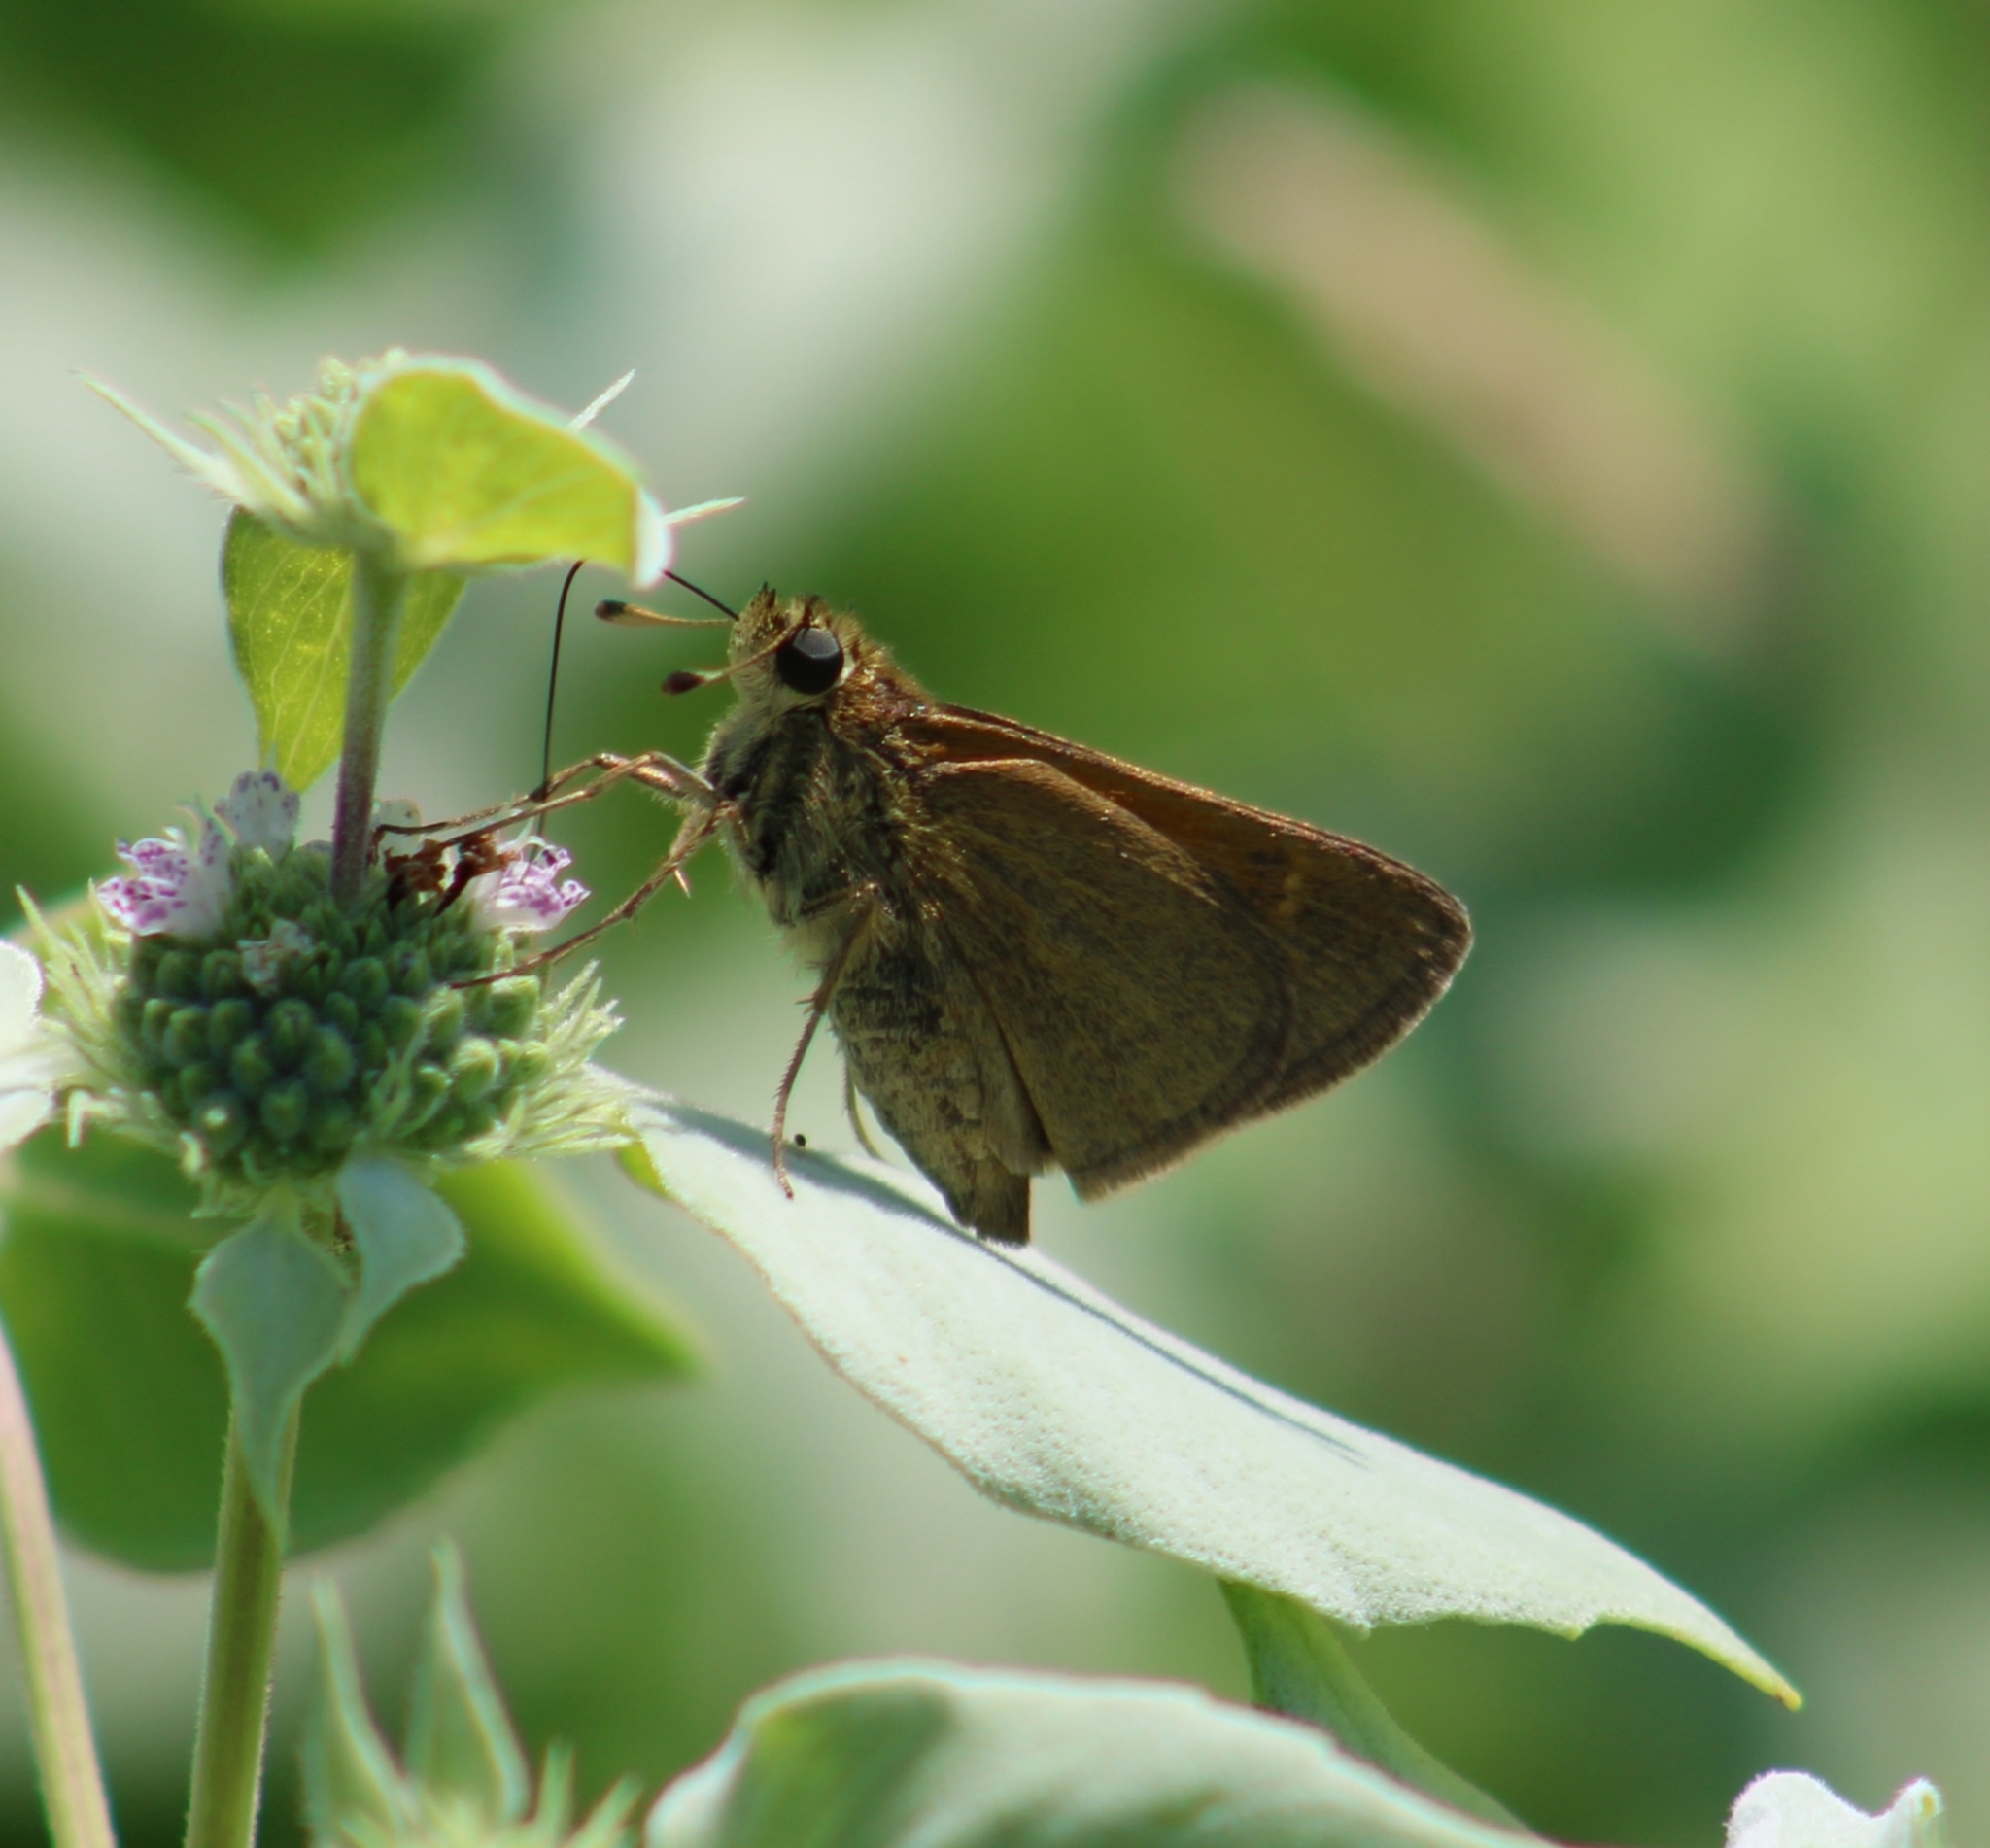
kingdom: Animalia
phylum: Arthropoda
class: Insecta
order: Lepidoptera
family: Hesperiidae
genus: Polites
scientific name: Polites themistocles
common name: Tawny-edged skipper
